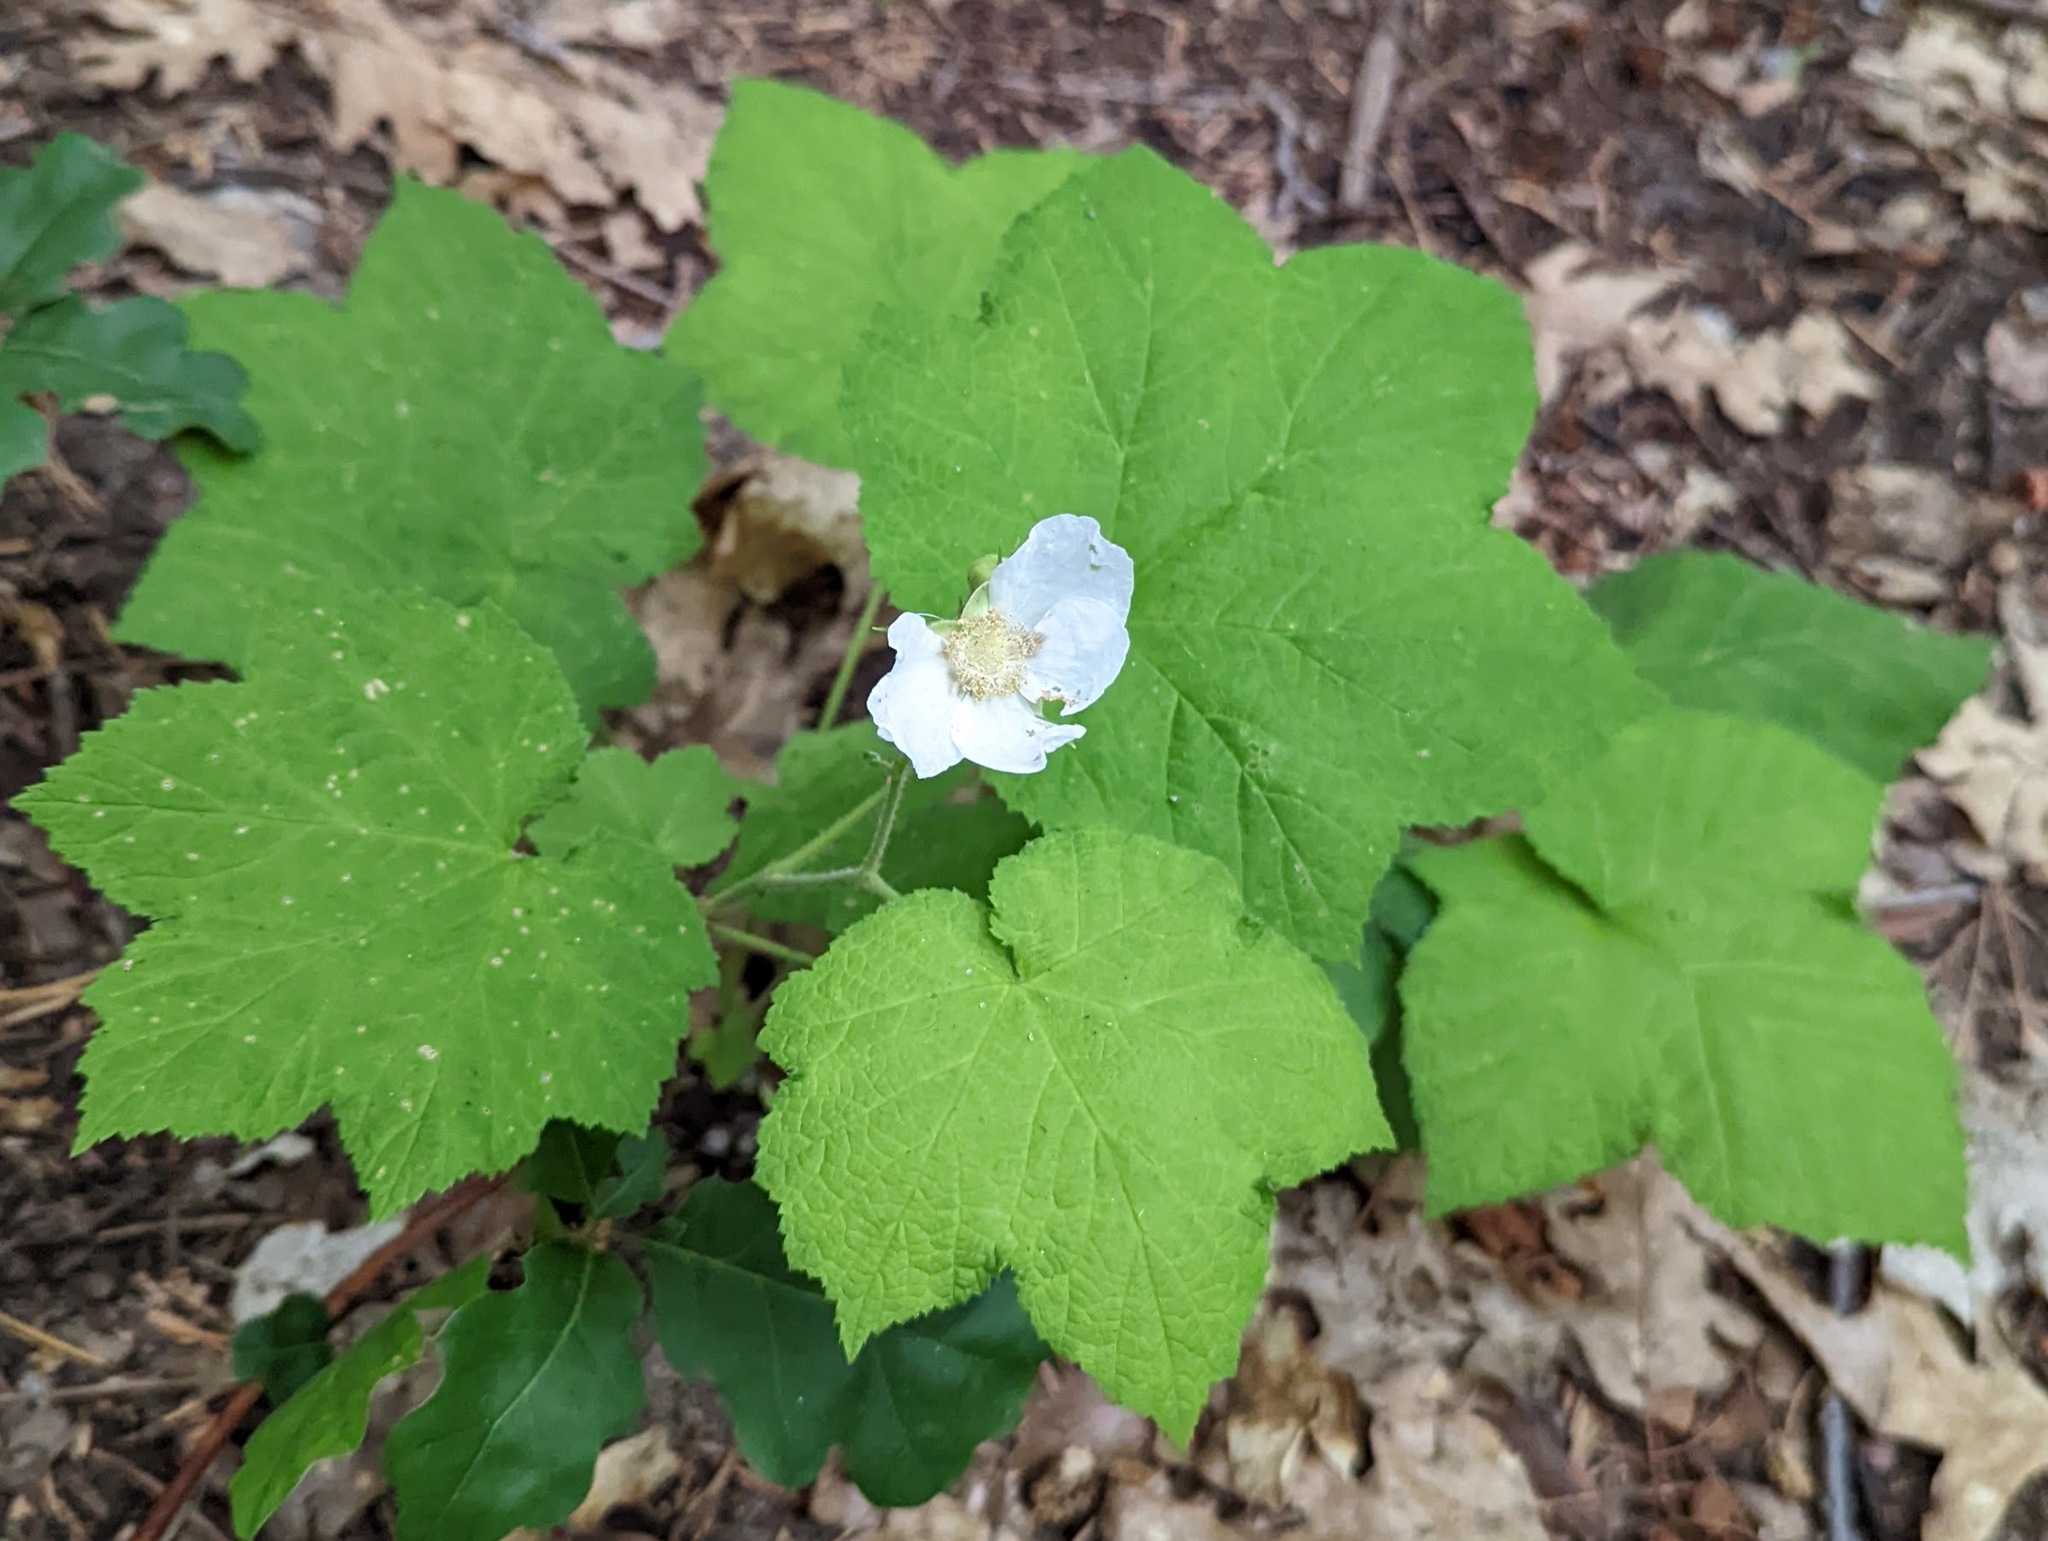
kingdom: Plantae
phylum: Tracheophyta
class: Magnoliopsida
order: Rosales
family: Rosaceae
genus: Rubus
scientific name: Rubus parviflorus
